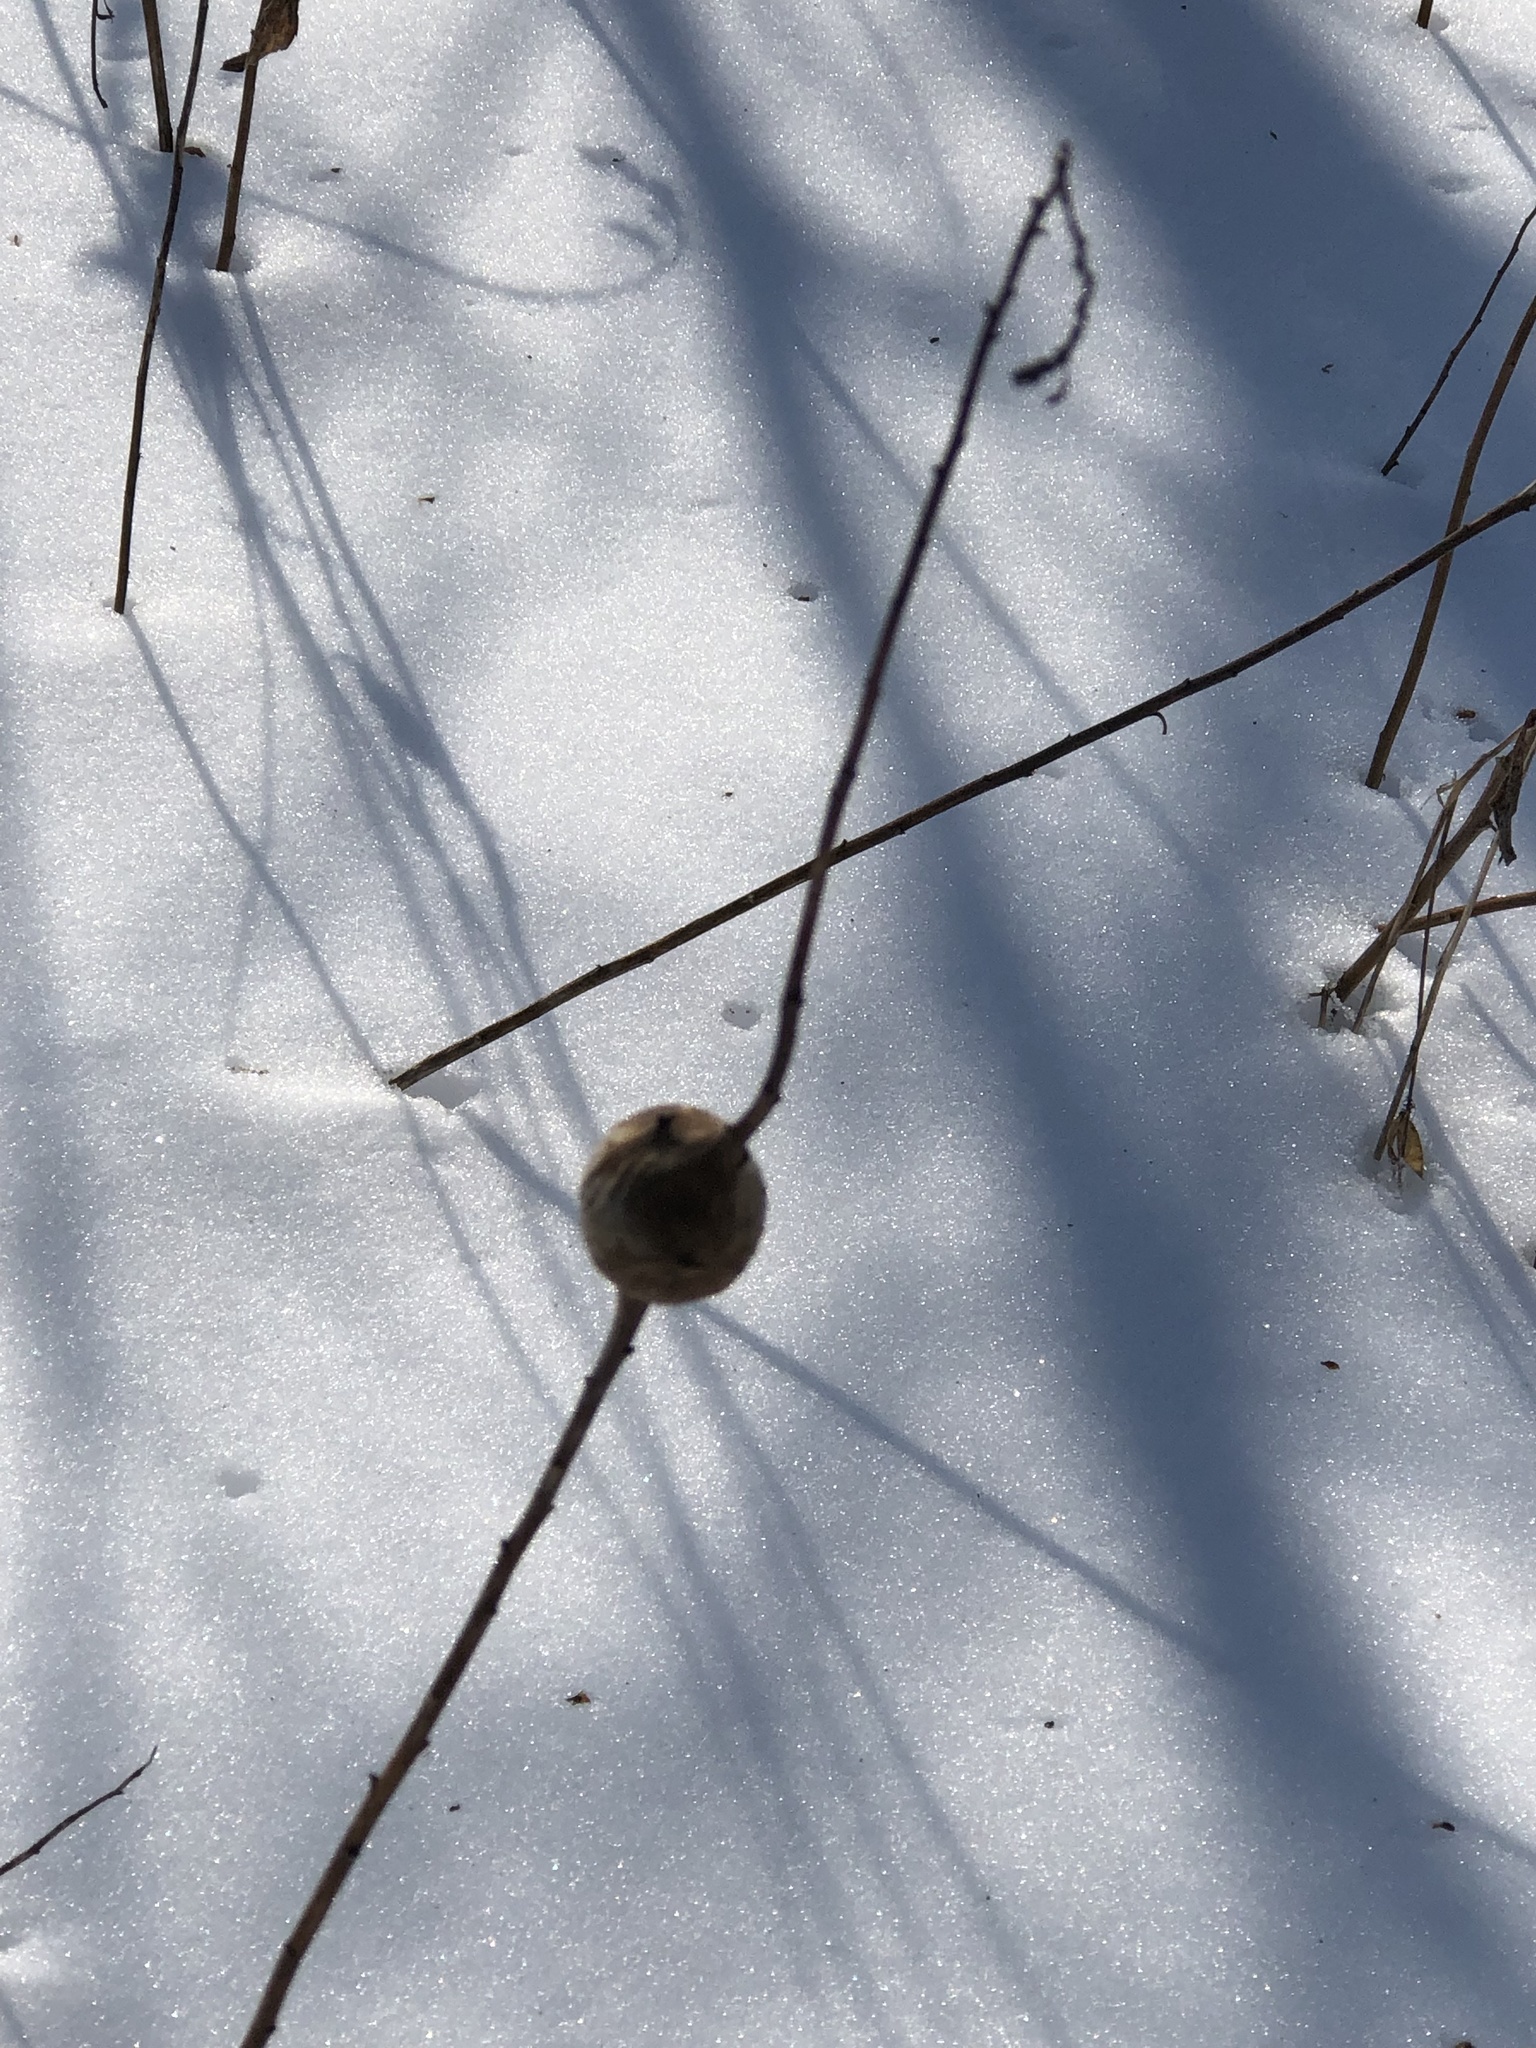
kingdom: Animalia
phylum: Arthropoda
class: Insecta
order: Diptera
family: Tephritidae
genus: Eurosta
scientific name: Eurosta solidaginis
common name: Goldenrod gall fly
